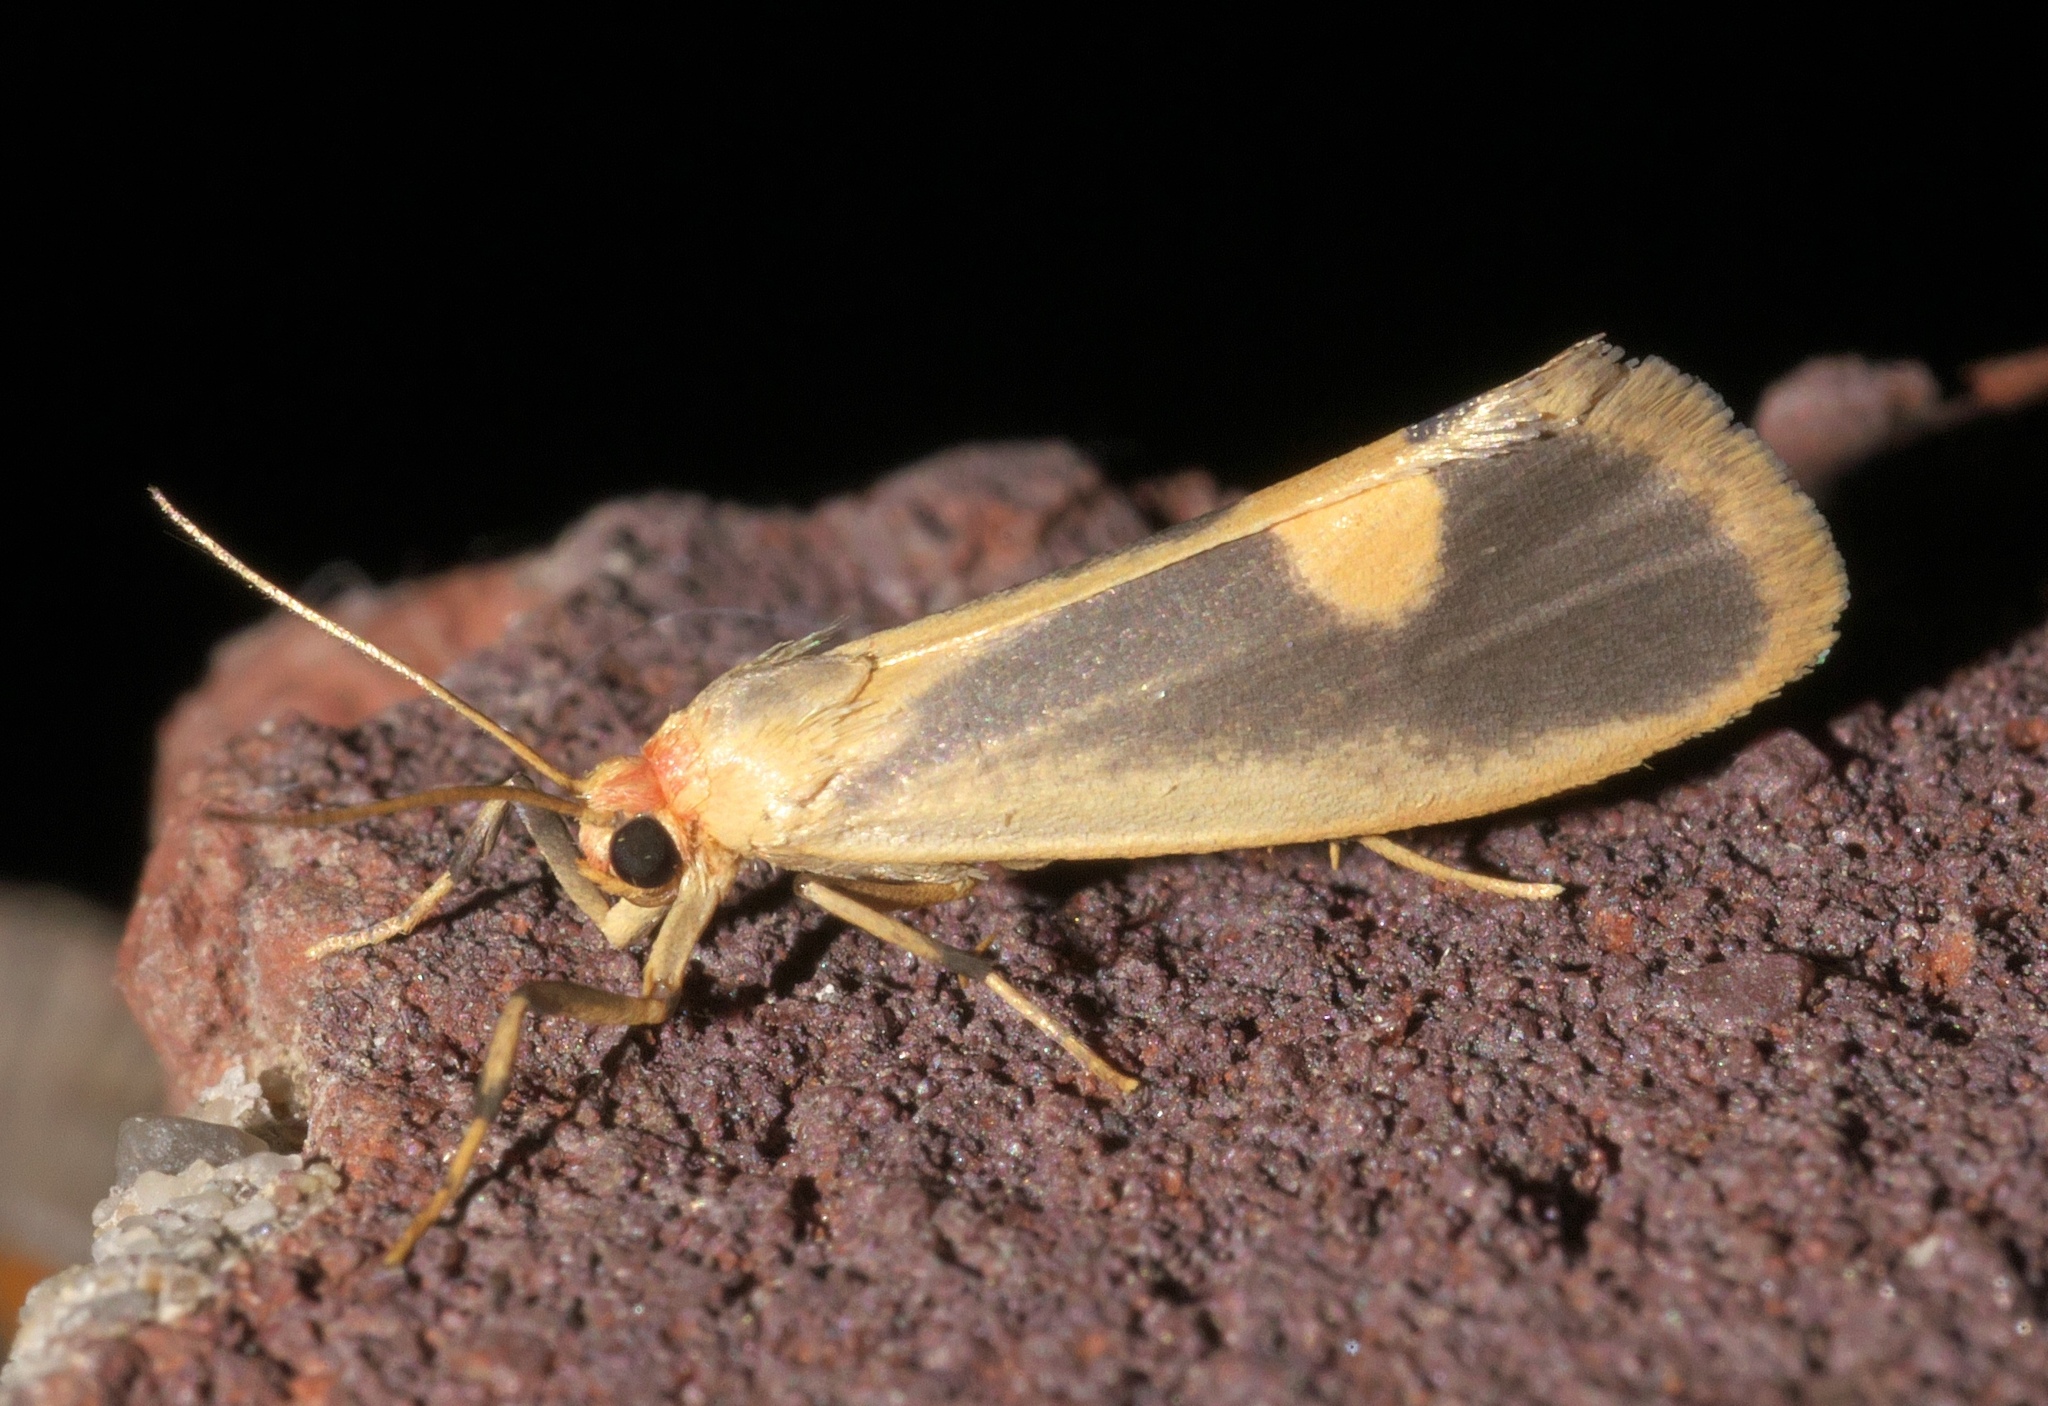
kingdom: Animalia
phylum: Arthropoda
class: Insecta
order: Lepidoptera
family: Erebidae
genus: Cisthene
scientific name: Cisthene plumbea
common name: Lead colored lichen moth
